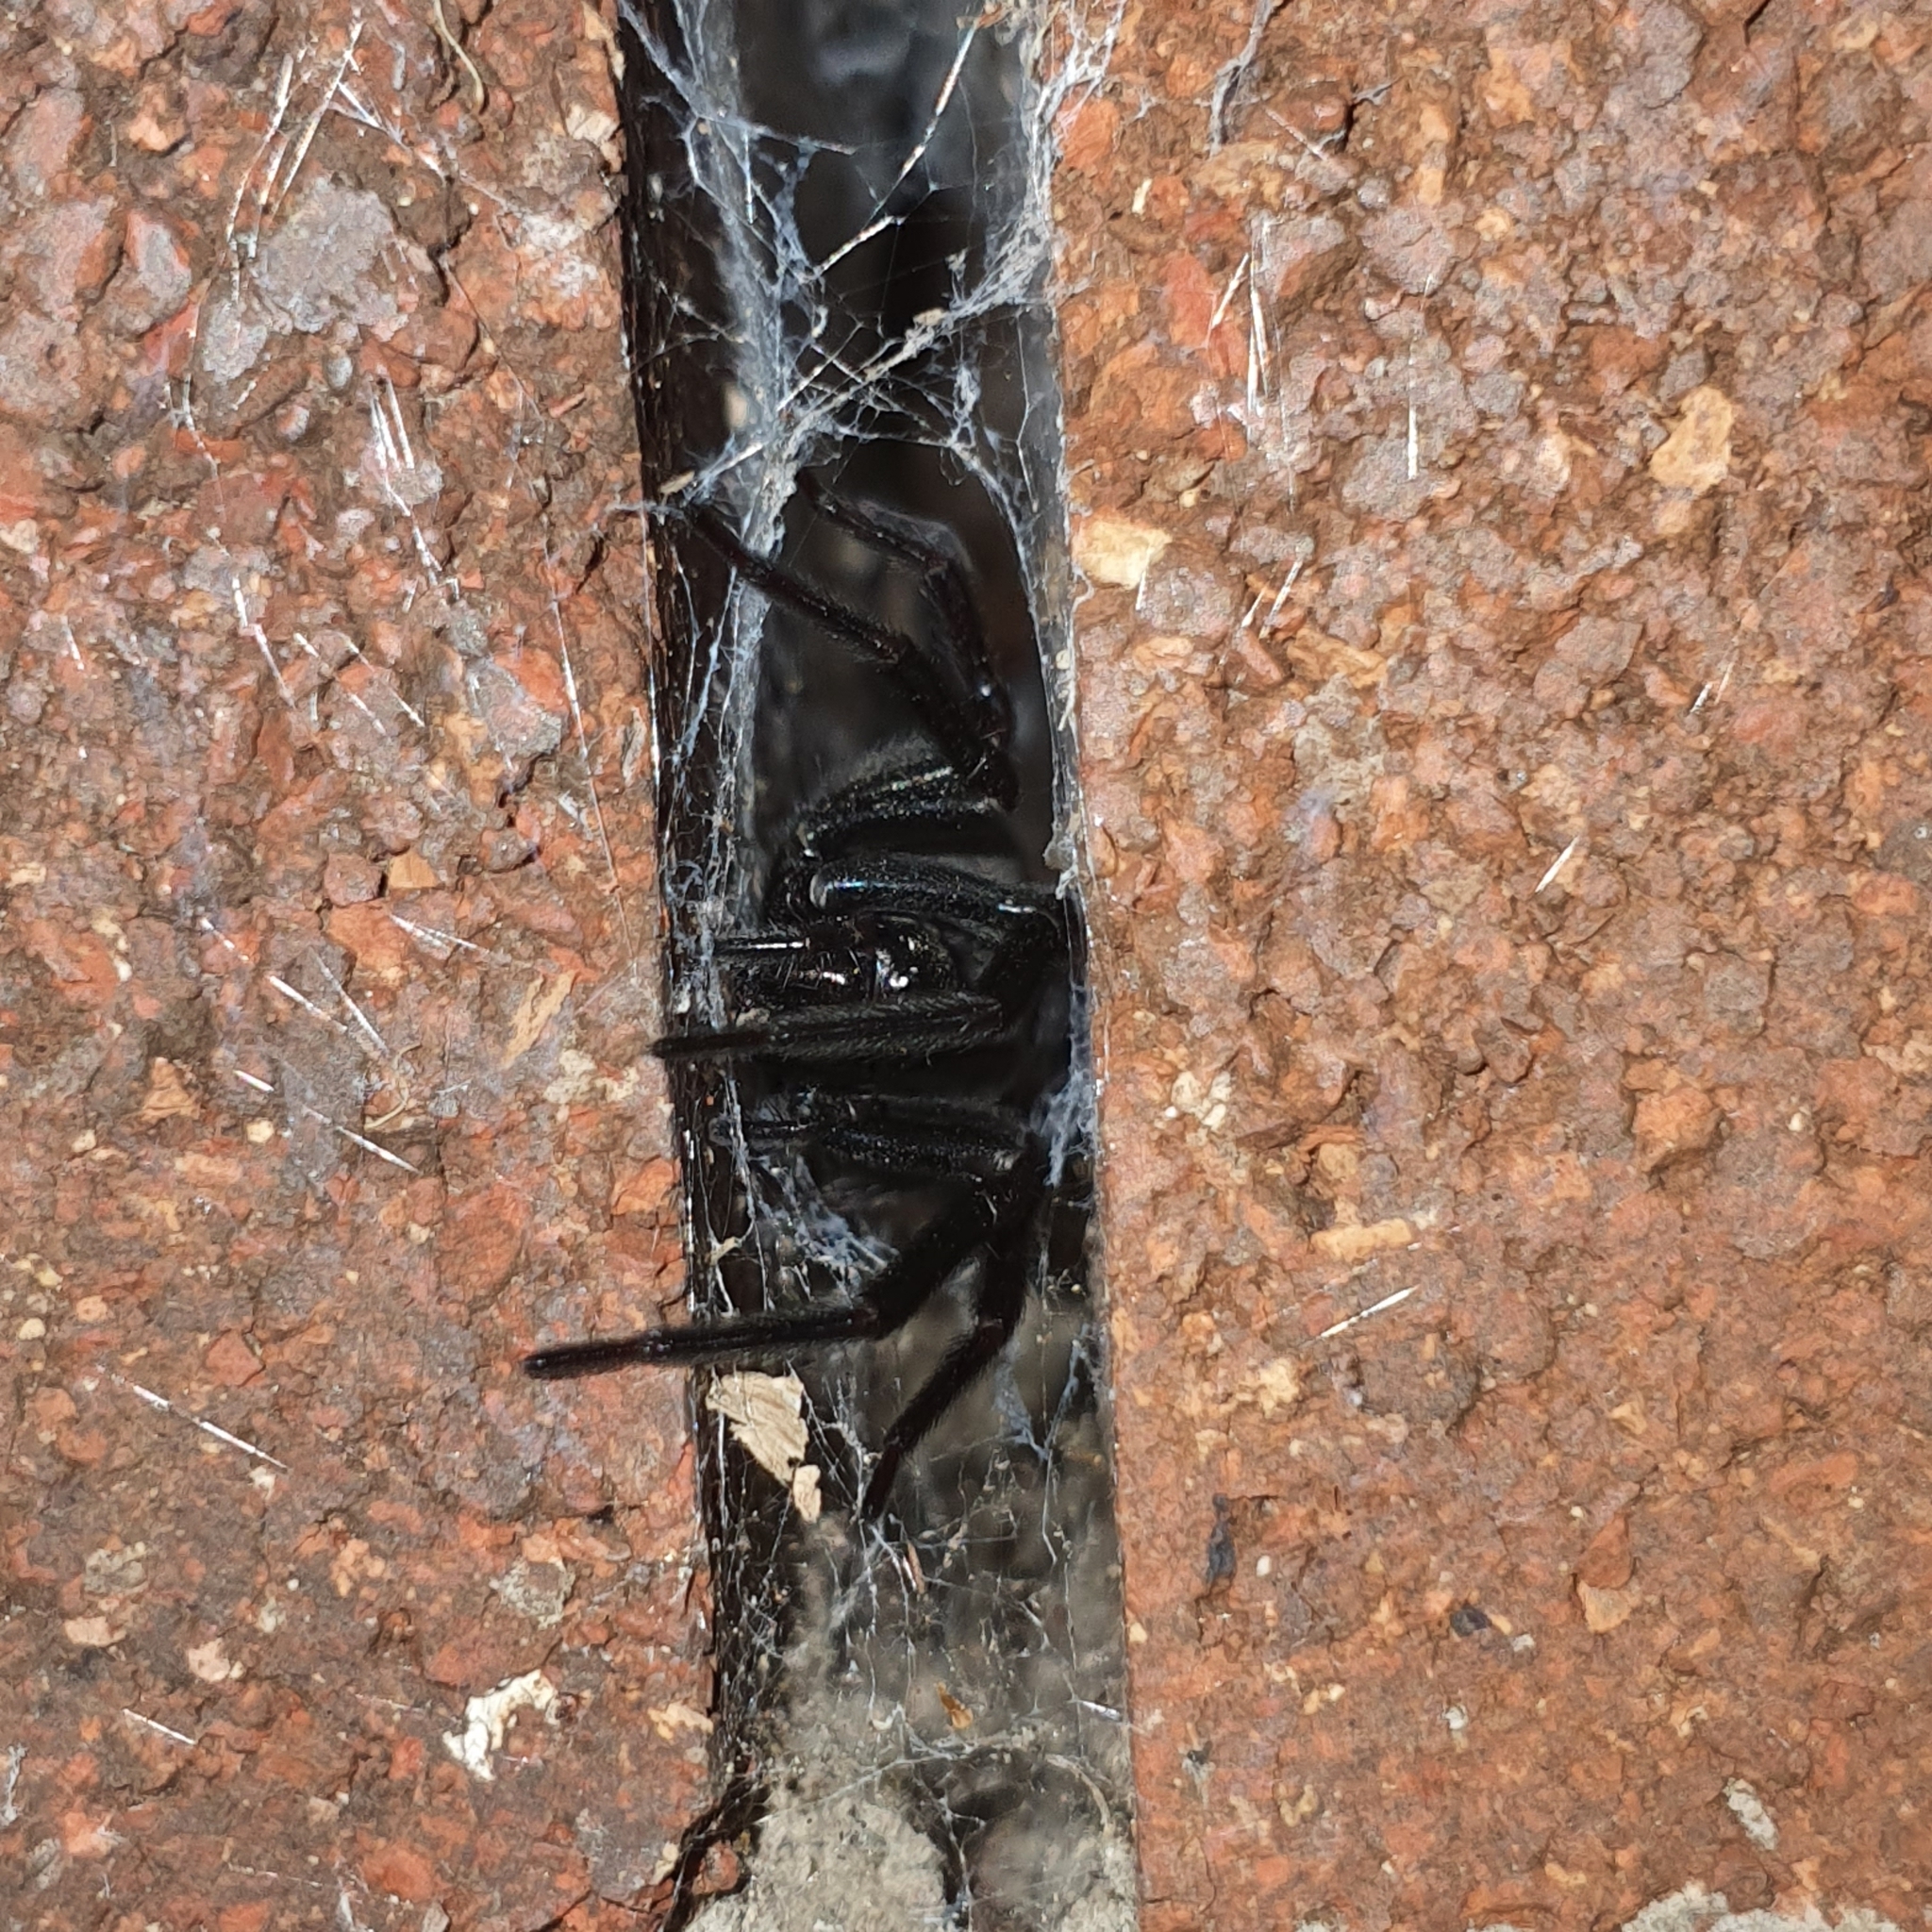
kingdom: Animalia
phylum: Arthropoda
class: Arachnida
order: Araneae
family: Desidae
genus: Badumna
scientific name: Badumna insignis
